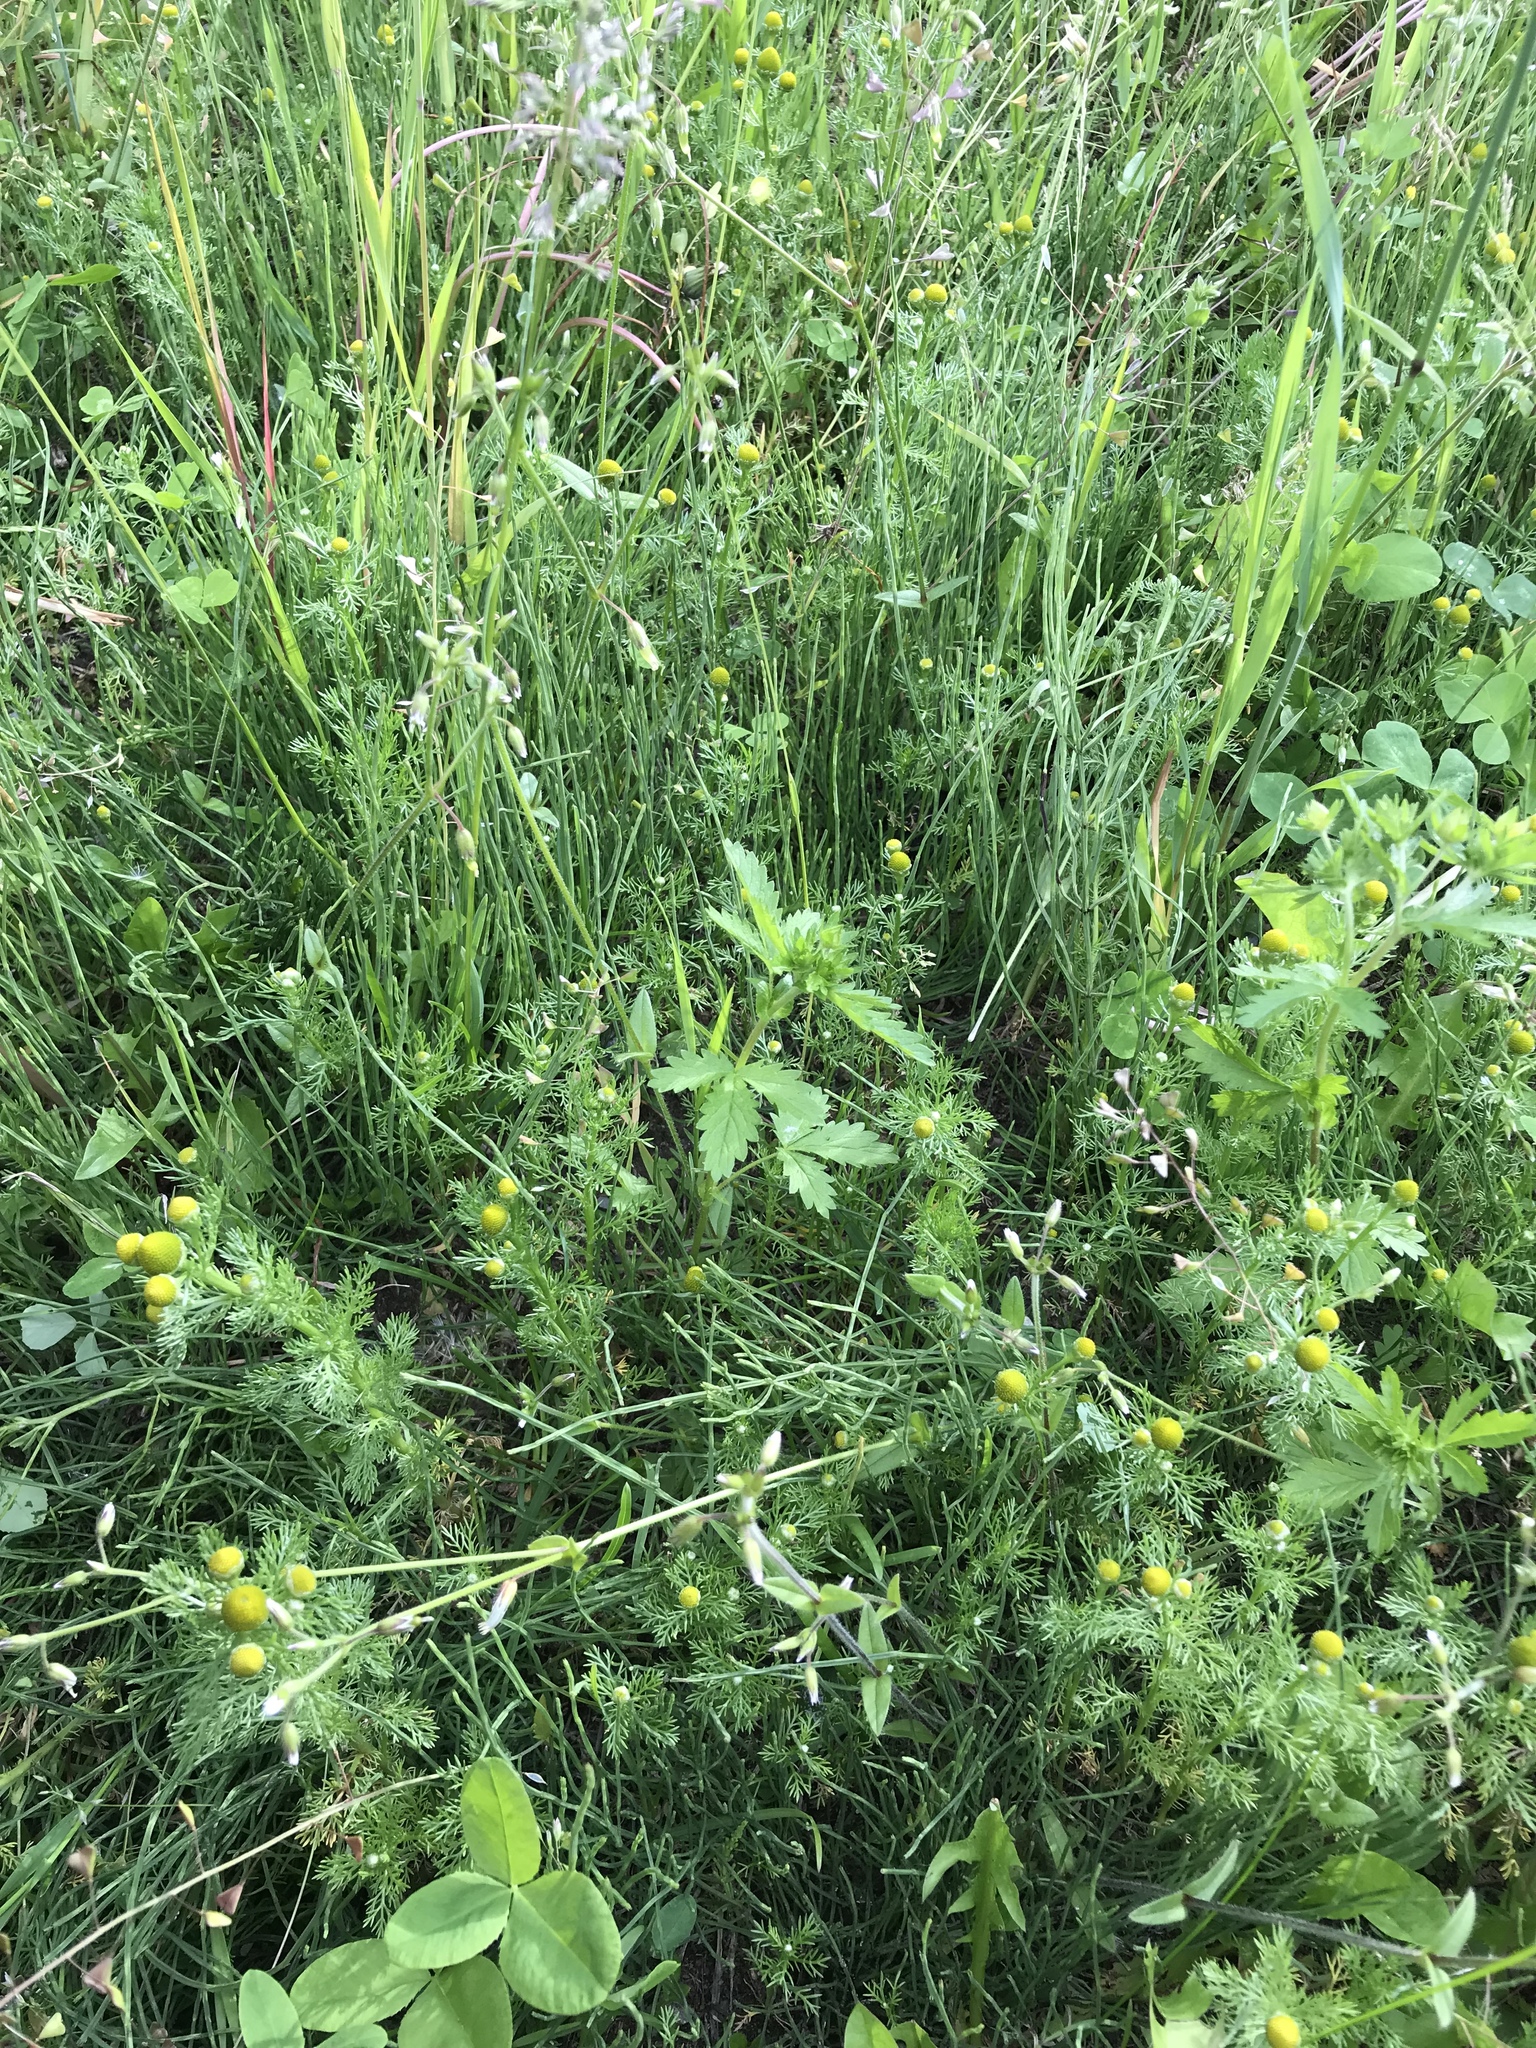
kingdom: Plantae
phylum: Tracheophyta
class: Magnoliopsida
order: Rosales
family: Rosaceae
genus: Potentilla
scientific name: Potentilla norvegica
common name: Ternate-leaved cinquefoil
